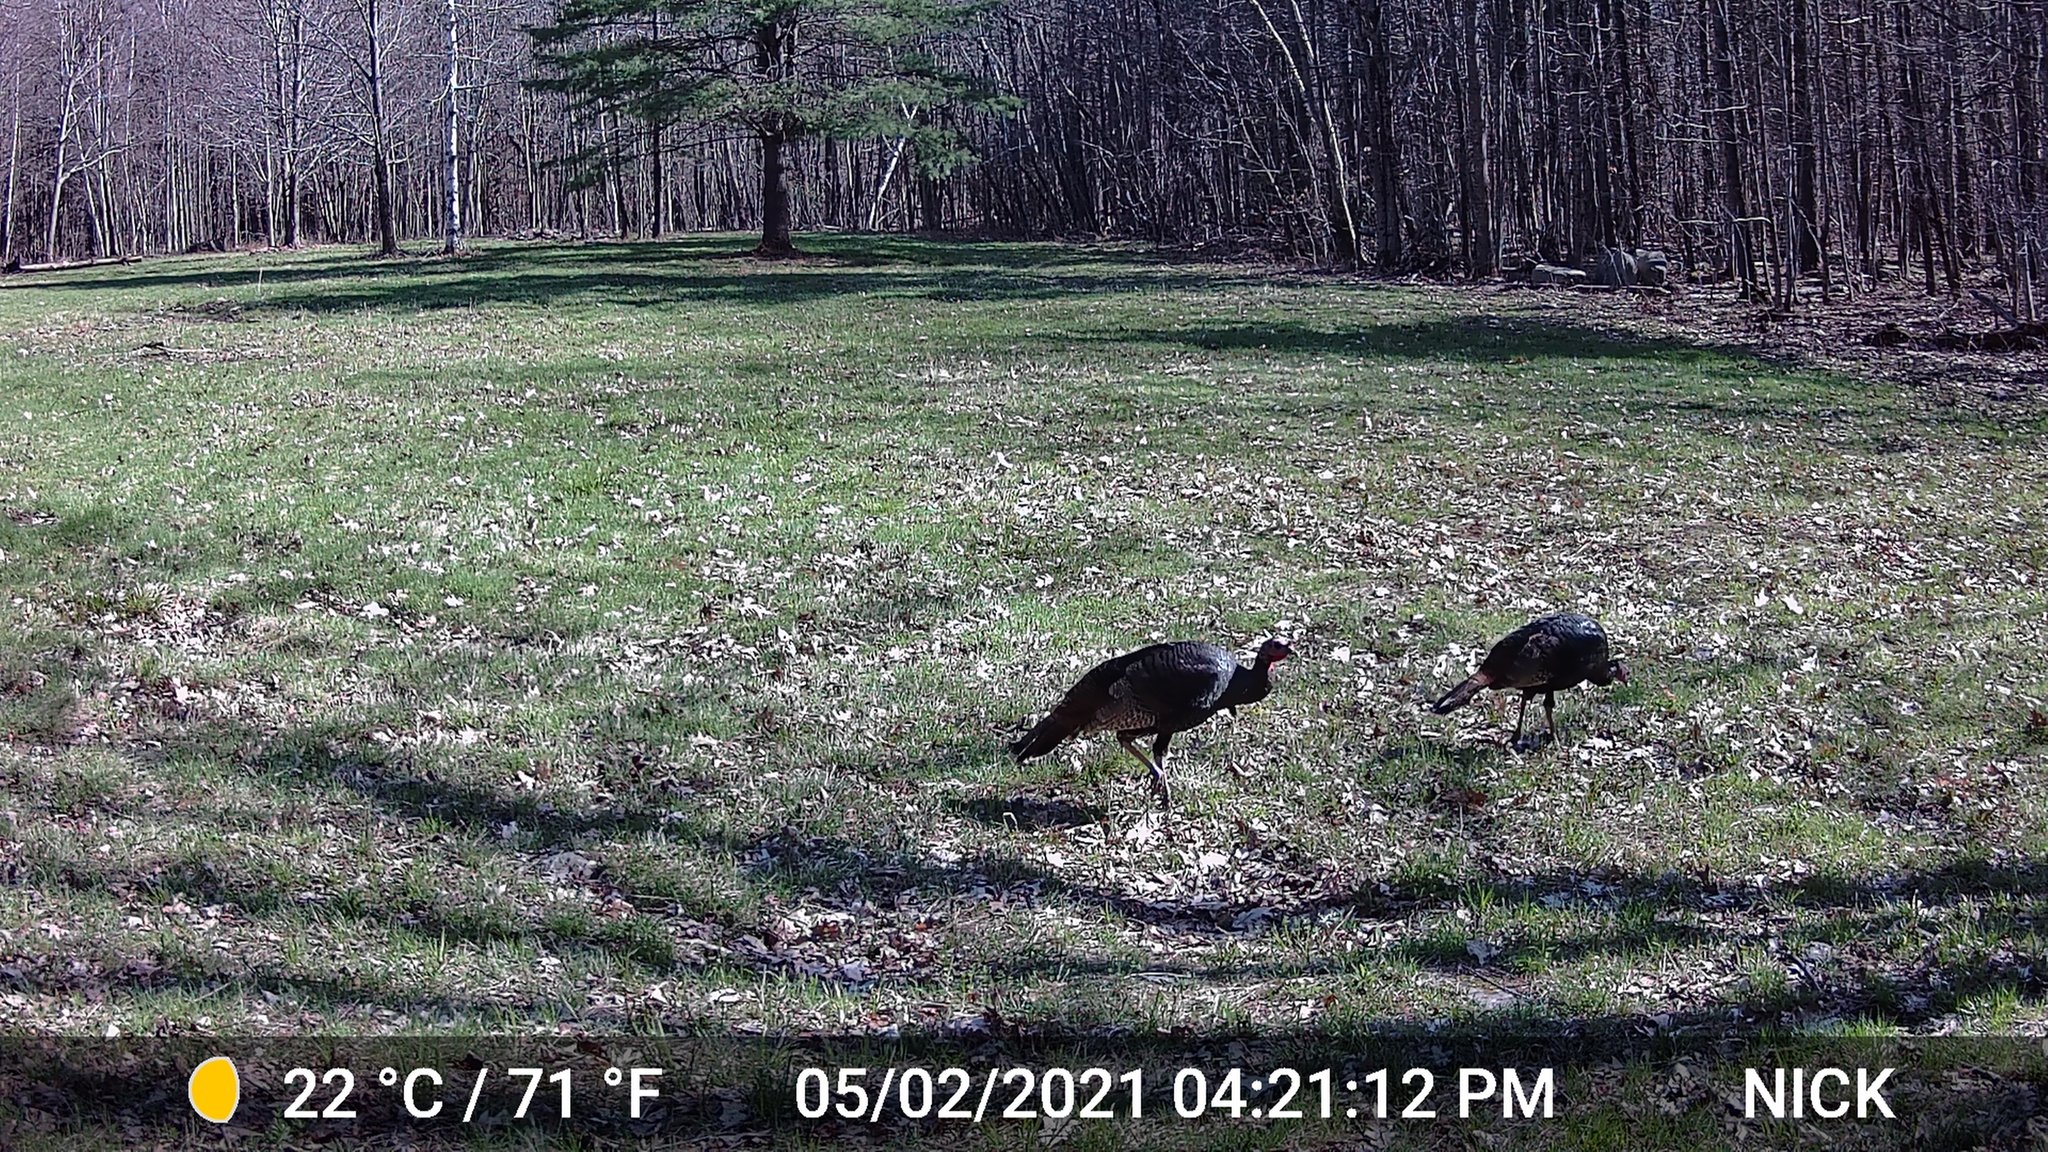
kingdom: Animalia
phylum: Chordata
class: Aves
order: Galliformes
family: Phasianidae
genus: Meleagris
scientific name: Meleagris gallopavo
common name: Wild turkey
